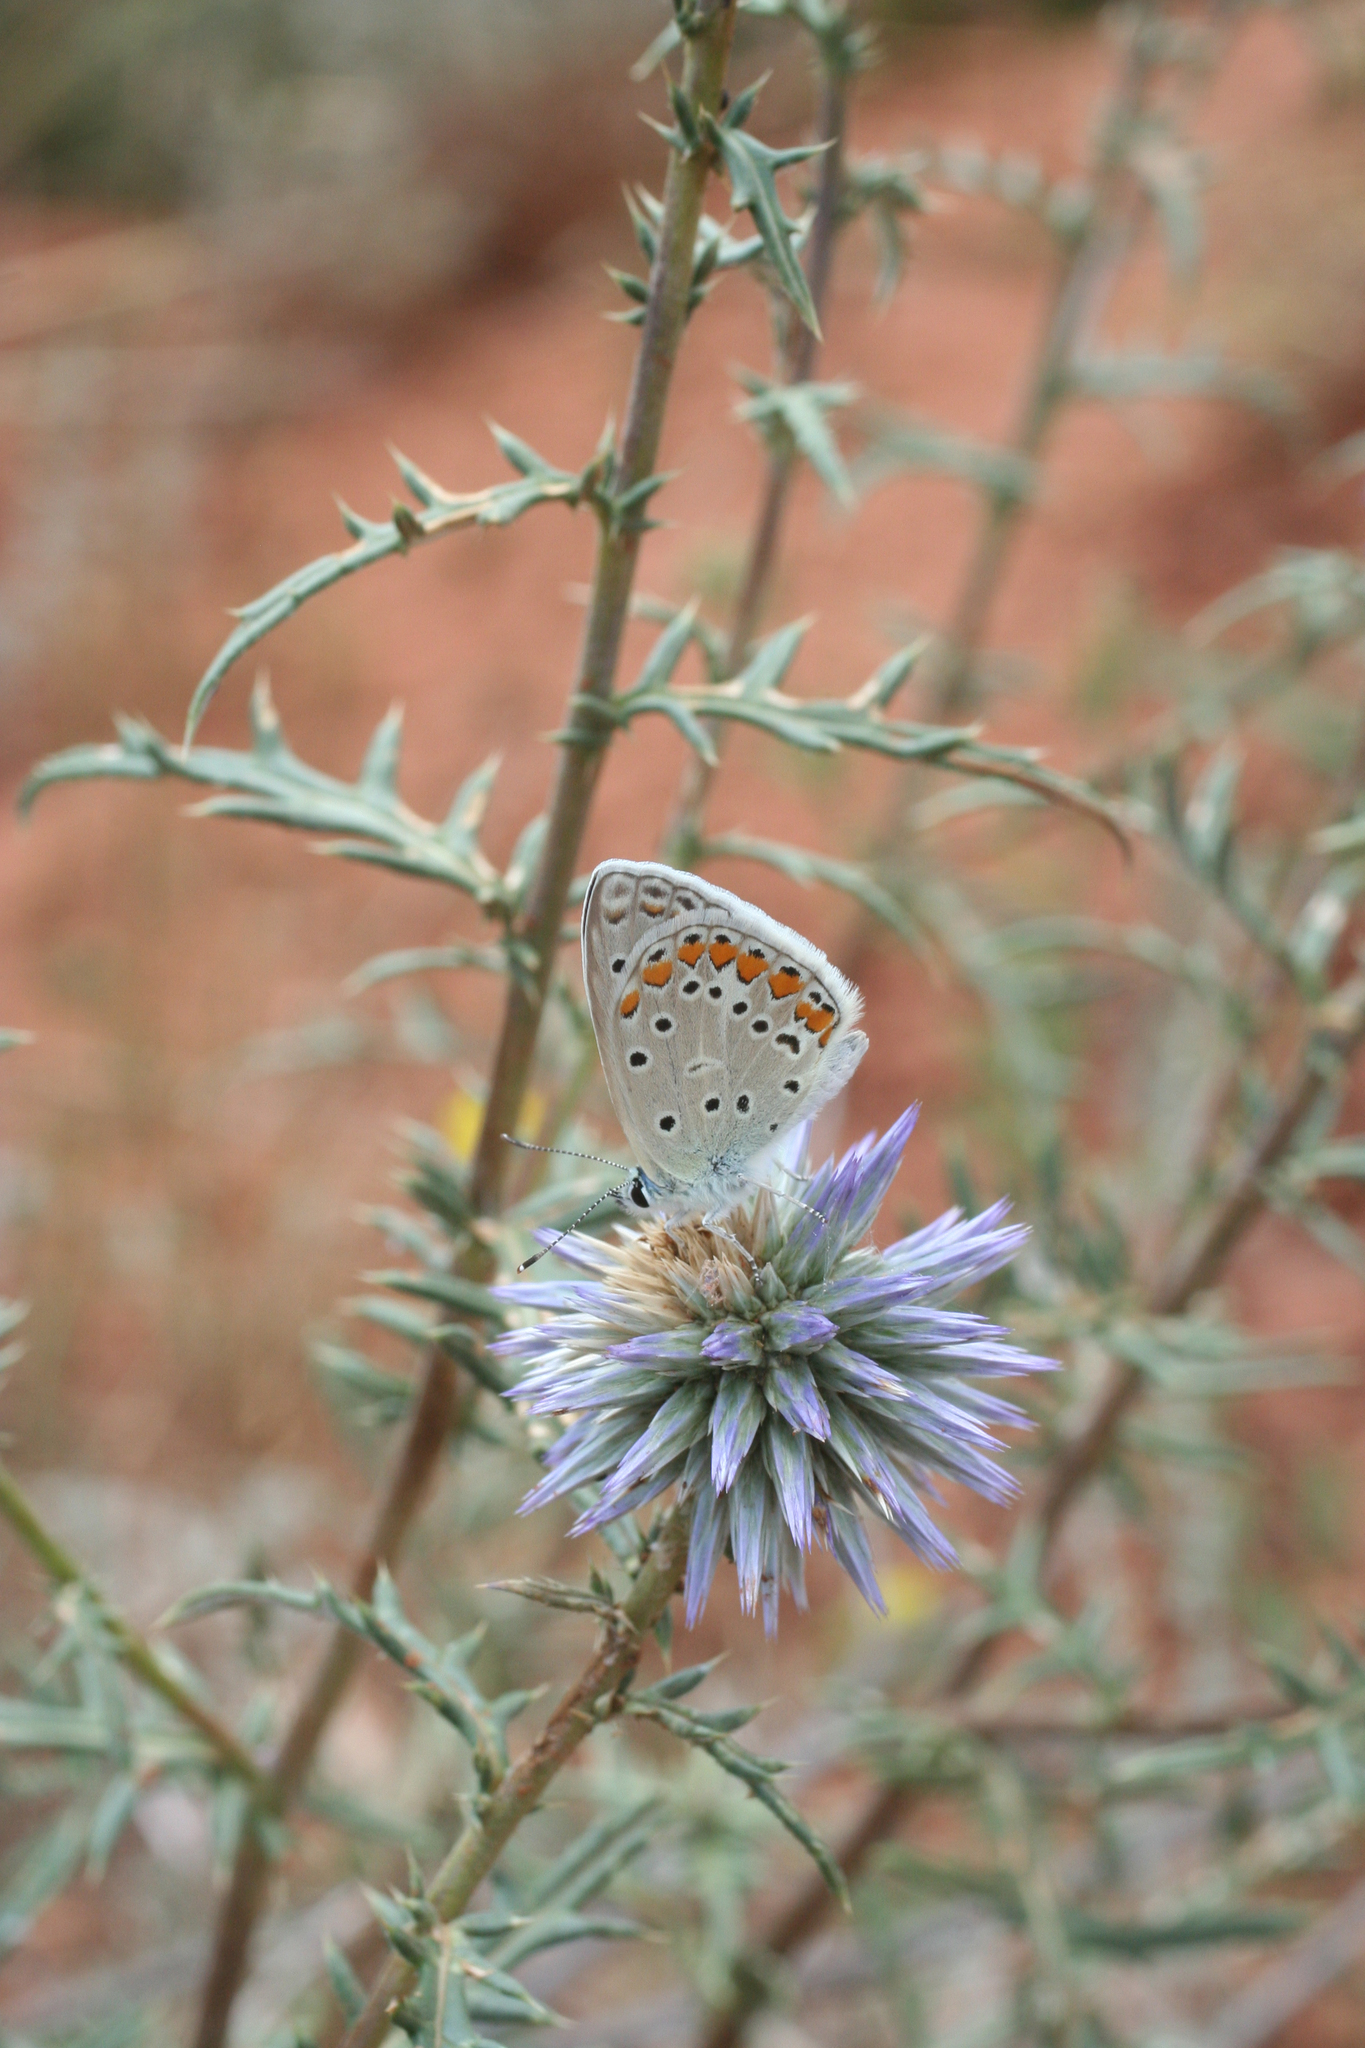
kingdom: Animalia
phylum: Arthropoda
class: Insecta
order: Lepidoptera
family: Lycaenidae
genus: Polyommatus
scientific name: Polyommatus icarus
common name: Common blue
